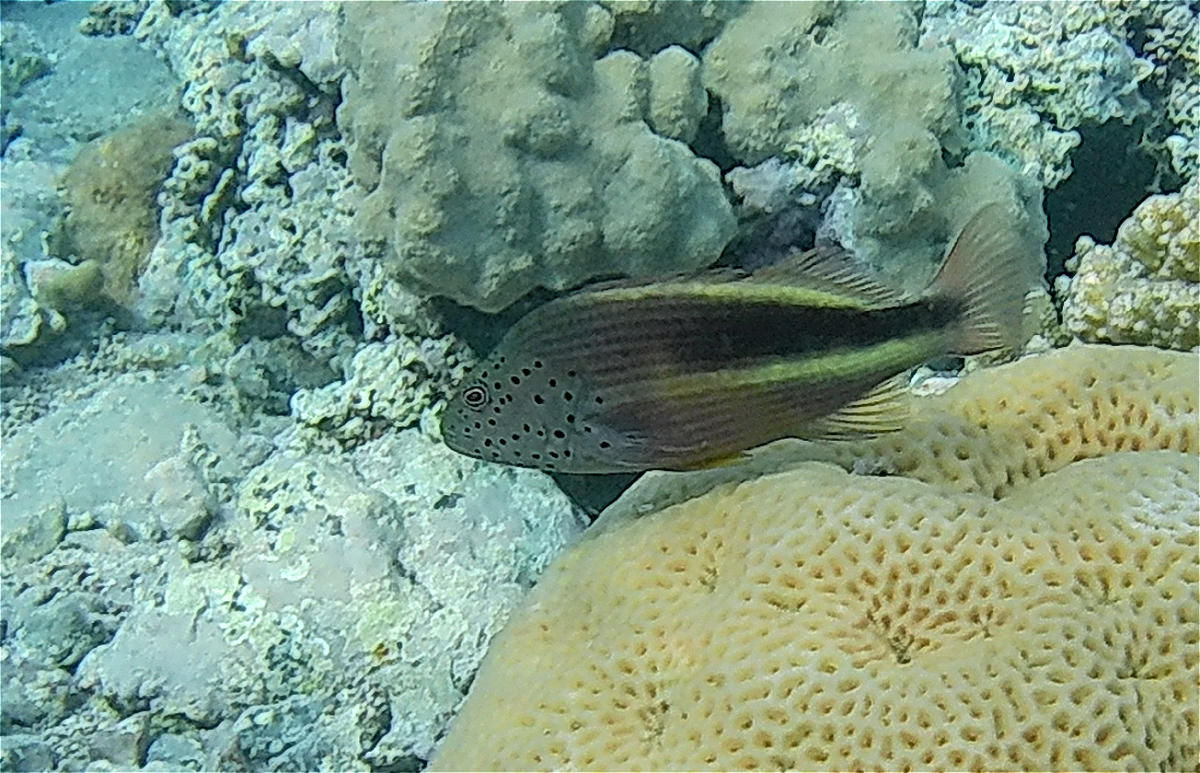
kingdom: Animalia
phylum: Chordata
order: Perciformes
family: Cirrhitidae
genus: Paracirrhites
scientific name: Paracirrhites forsteri
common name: Freckled hawkfish
